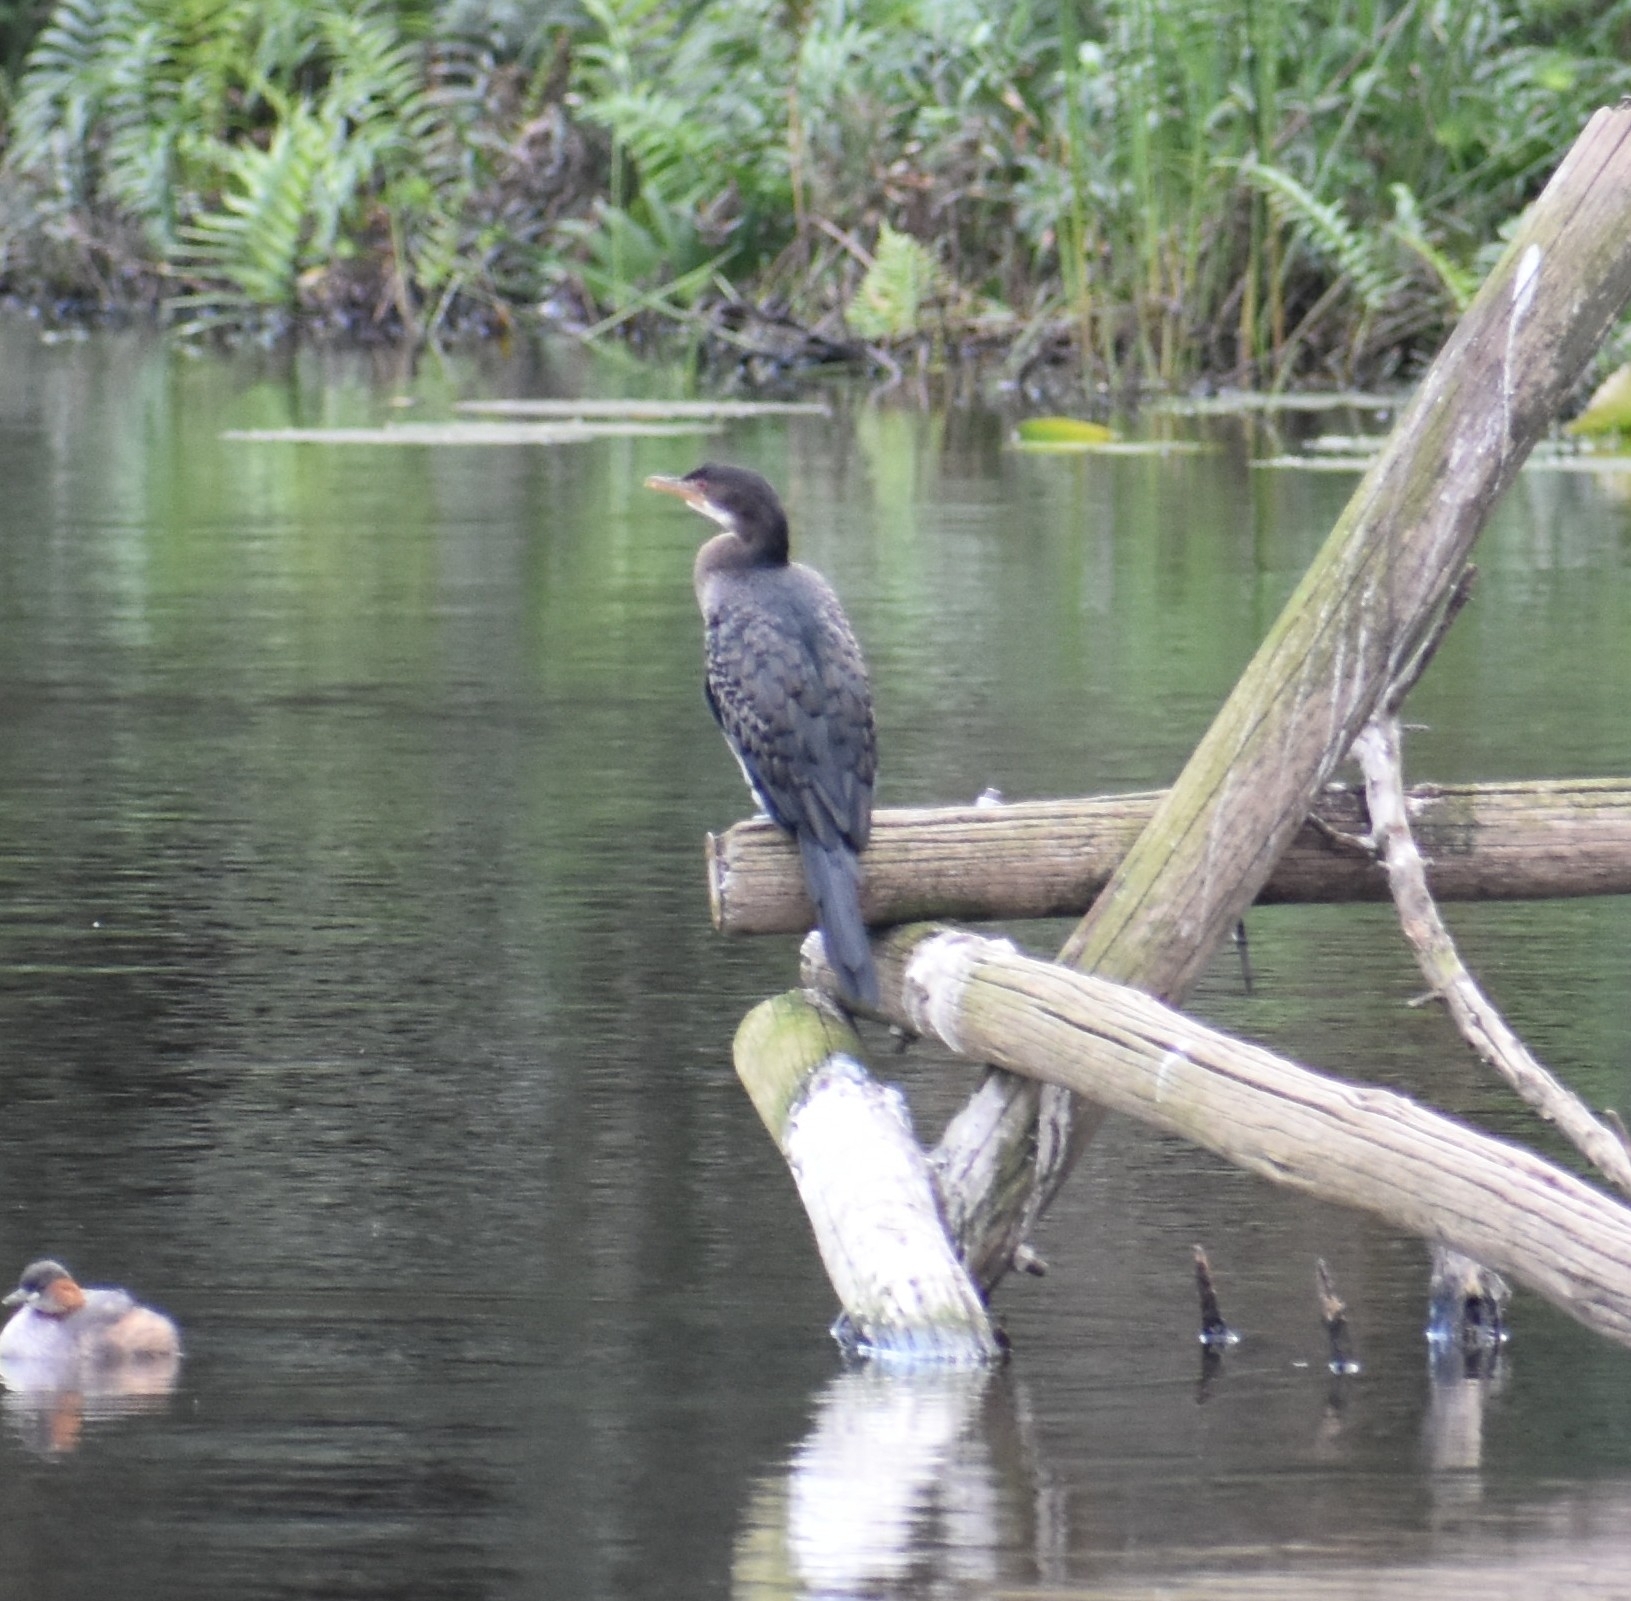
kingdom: Animalia
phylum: Chordata
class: Aves
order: Suliformes
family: Phalacrocoracidae
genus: Microcarbo
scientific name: Microcarbo africanus
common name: Long-tailed cormorant
